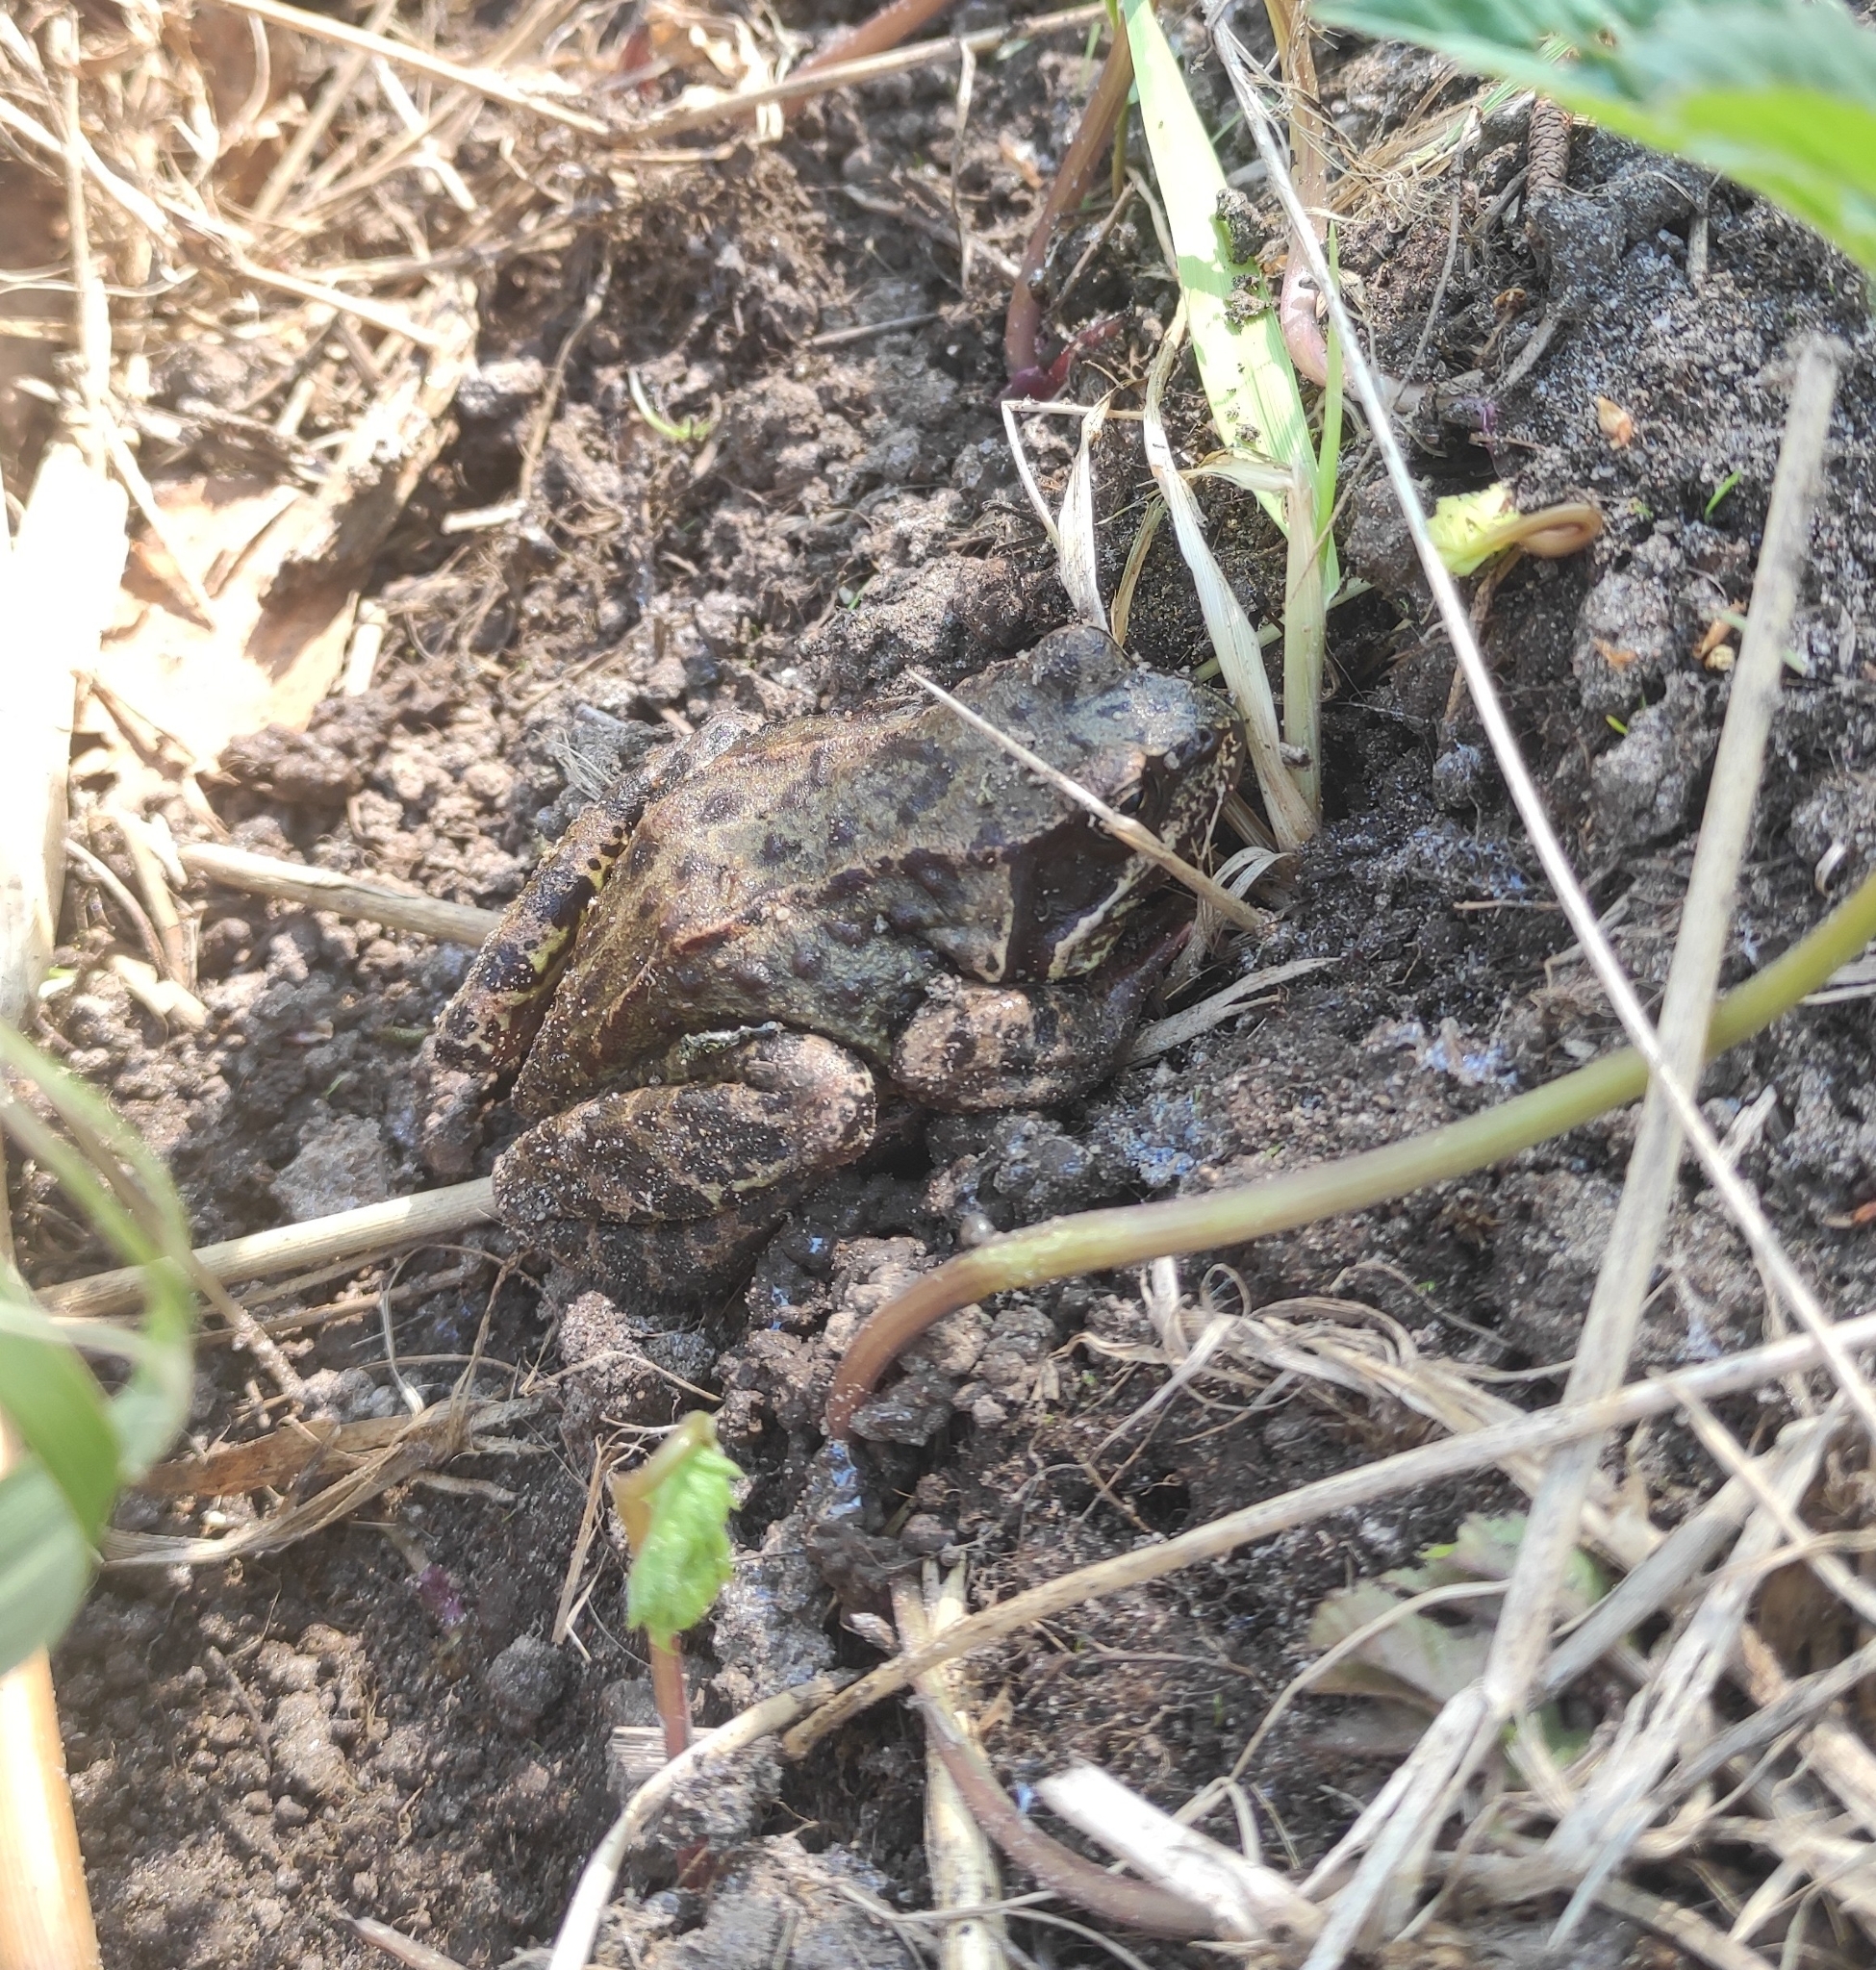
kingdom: Animalia
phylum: Chordata
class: Amphibia
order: Anura
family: Ranidae
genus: Rana
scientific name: Rana temporaria
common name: Common frog
